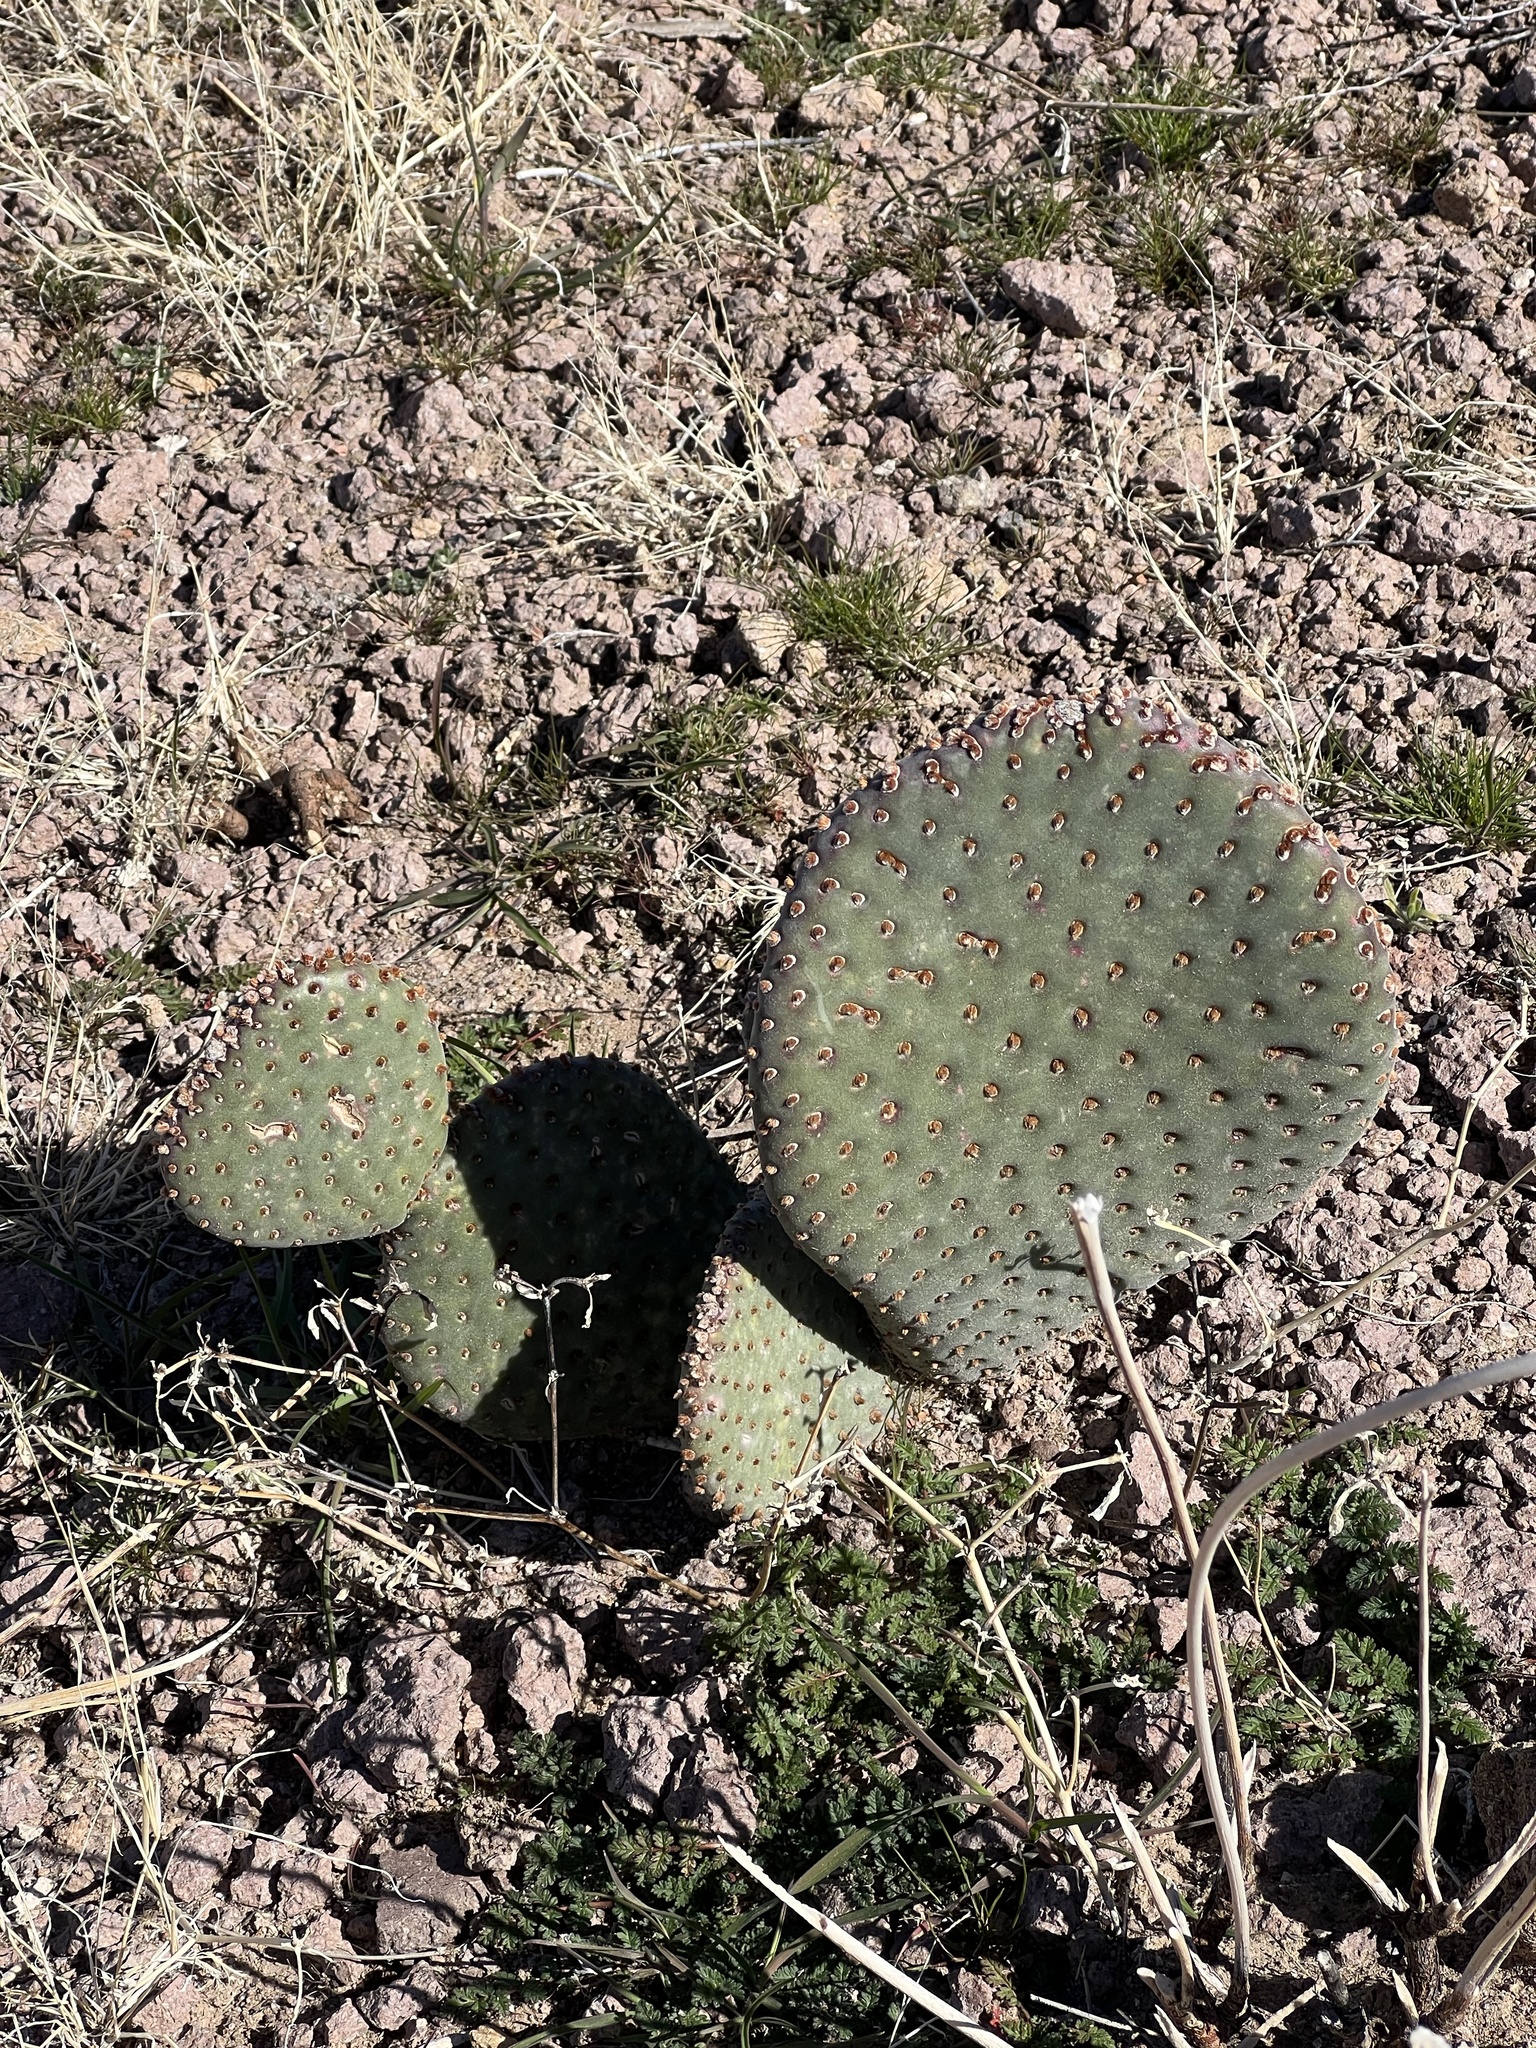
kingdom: Plantae
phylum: Tracheophyta
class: Magnoliopsida
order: Caryophyllales
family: Cactaceae
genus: Opuntia
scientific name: Opuntia basilaris
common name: Beavertail prickly-pear
